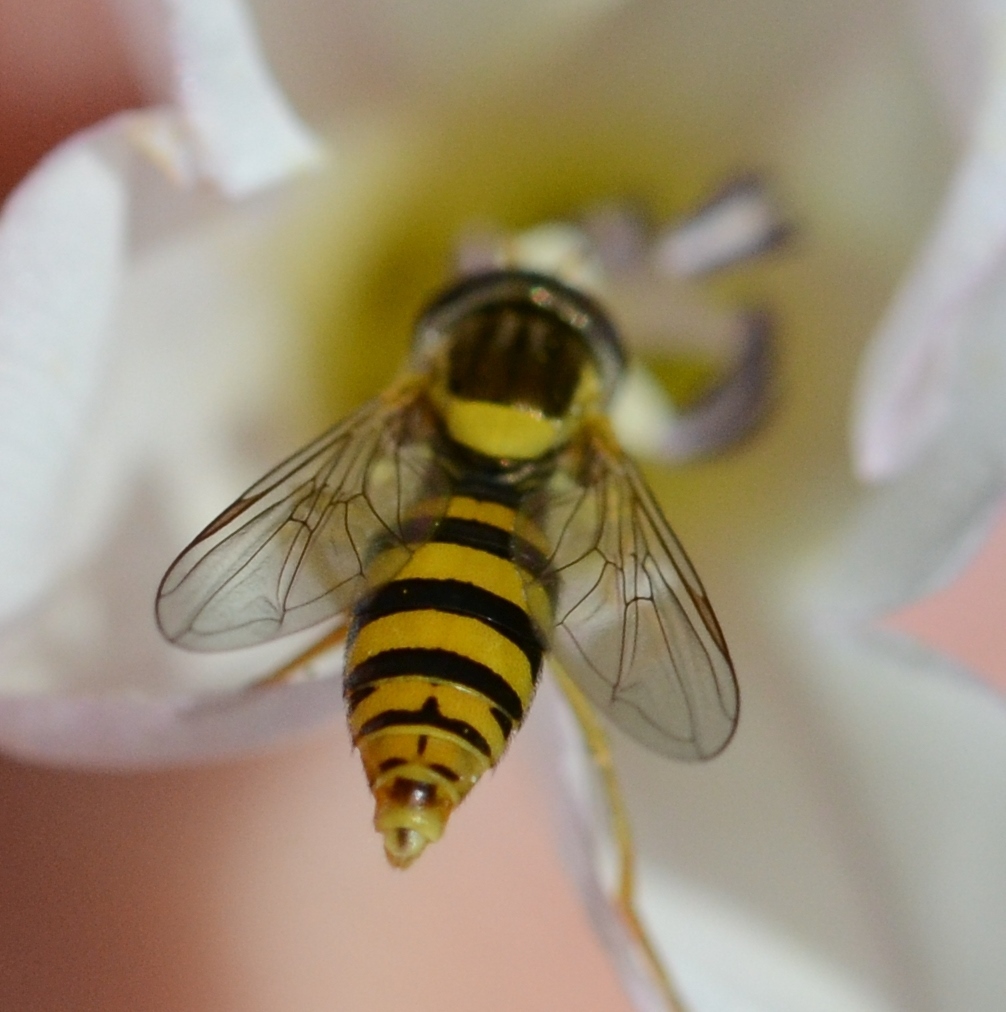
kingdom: Animalia
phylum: Arthropoda
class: Insecta
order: Diptera
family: Syrphidae
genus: Sphaerophoria
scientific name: Sphaerophoria
